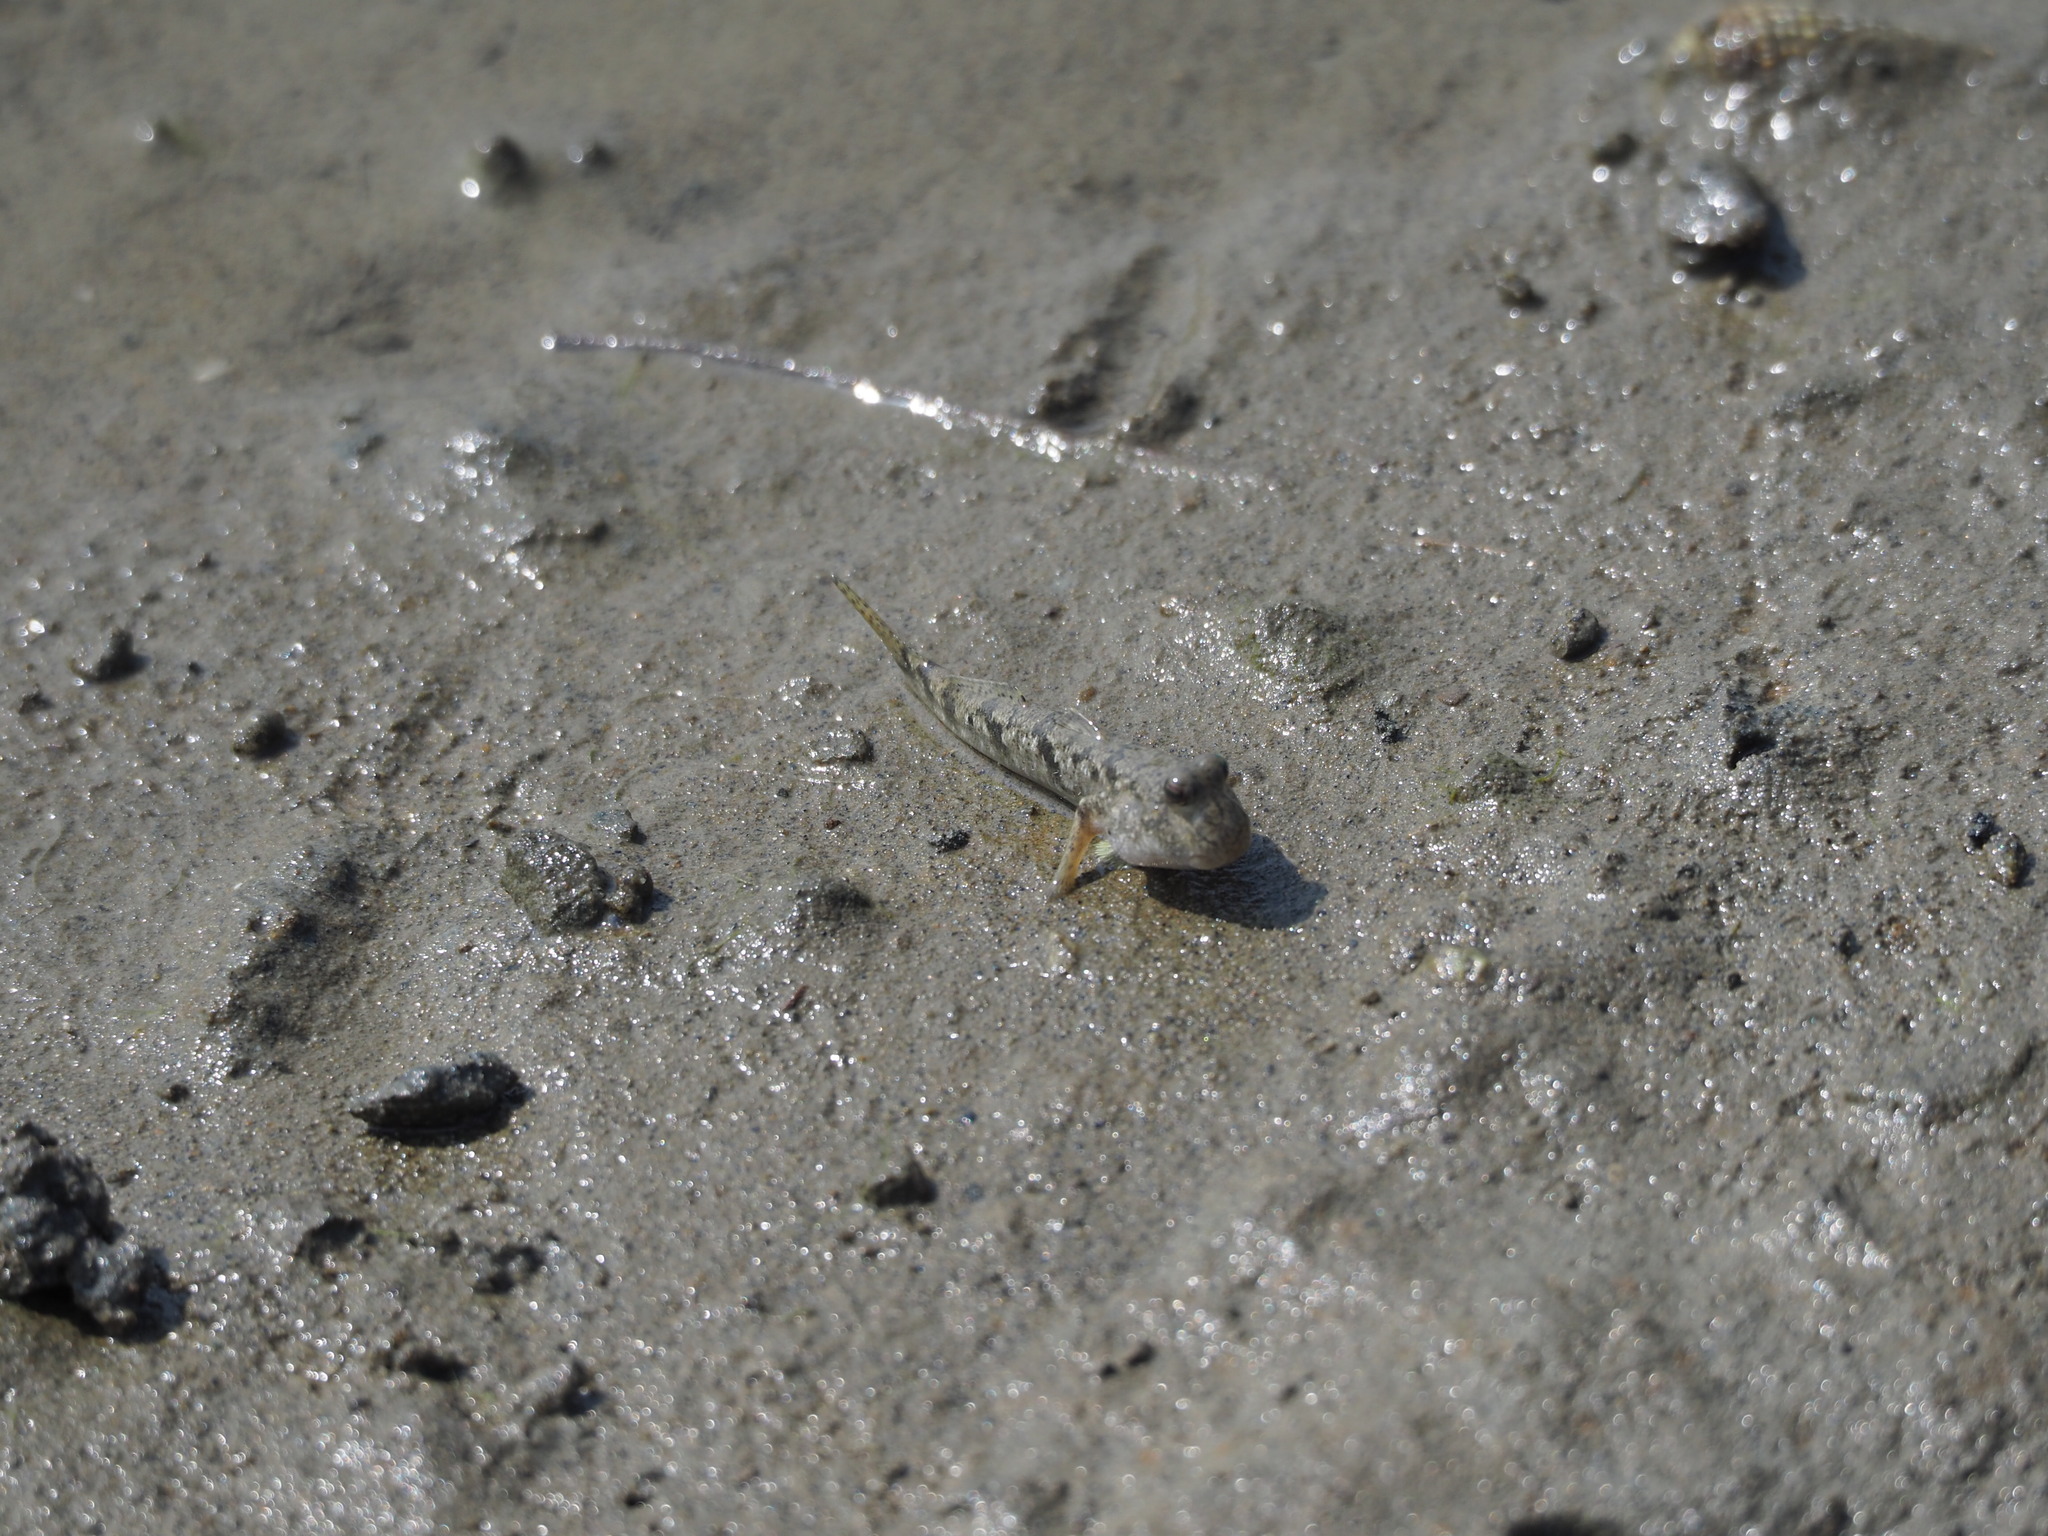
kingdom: Animalia
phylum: Chordata
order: Perciformes
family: Gobiidae
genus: Periophthalmus
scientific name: Periophthalmus modestus
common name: Black goby
